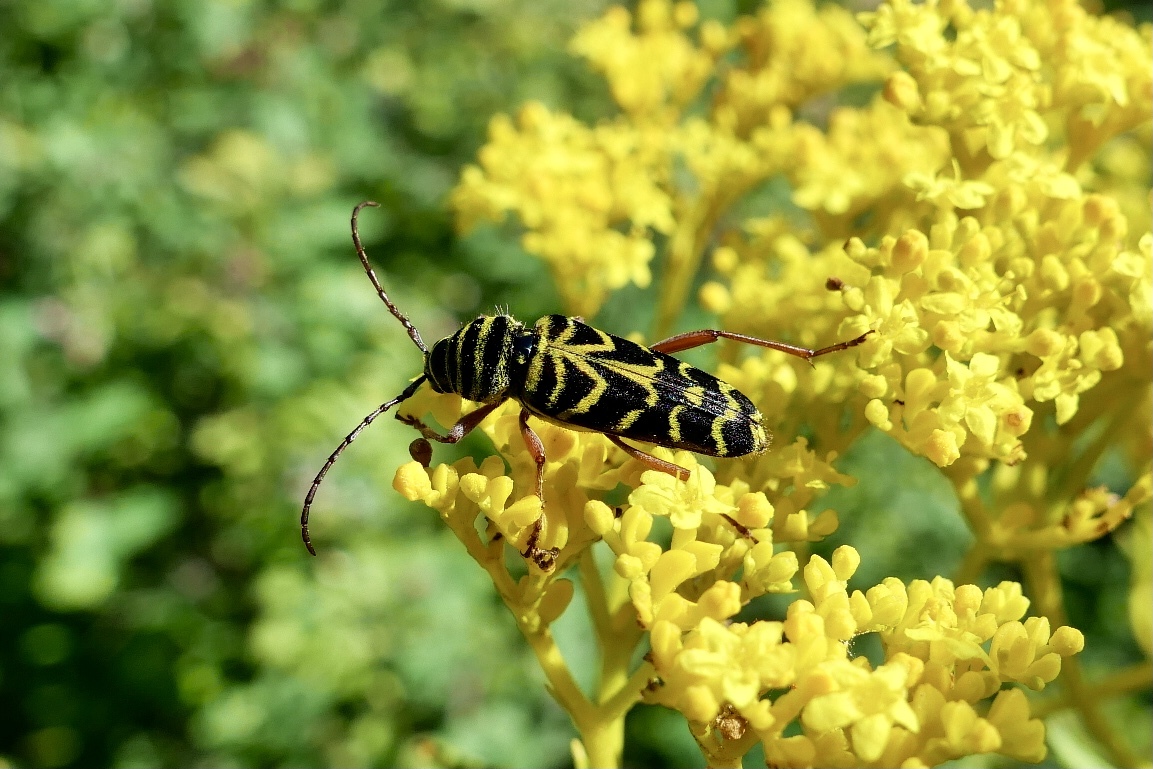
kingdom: Animalia
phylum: Arthropoda
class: Insecta
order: Coleoptera
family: Cerambycidae
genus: Megacyllene
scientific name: Megacyllene robiniae
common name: Locust borer
